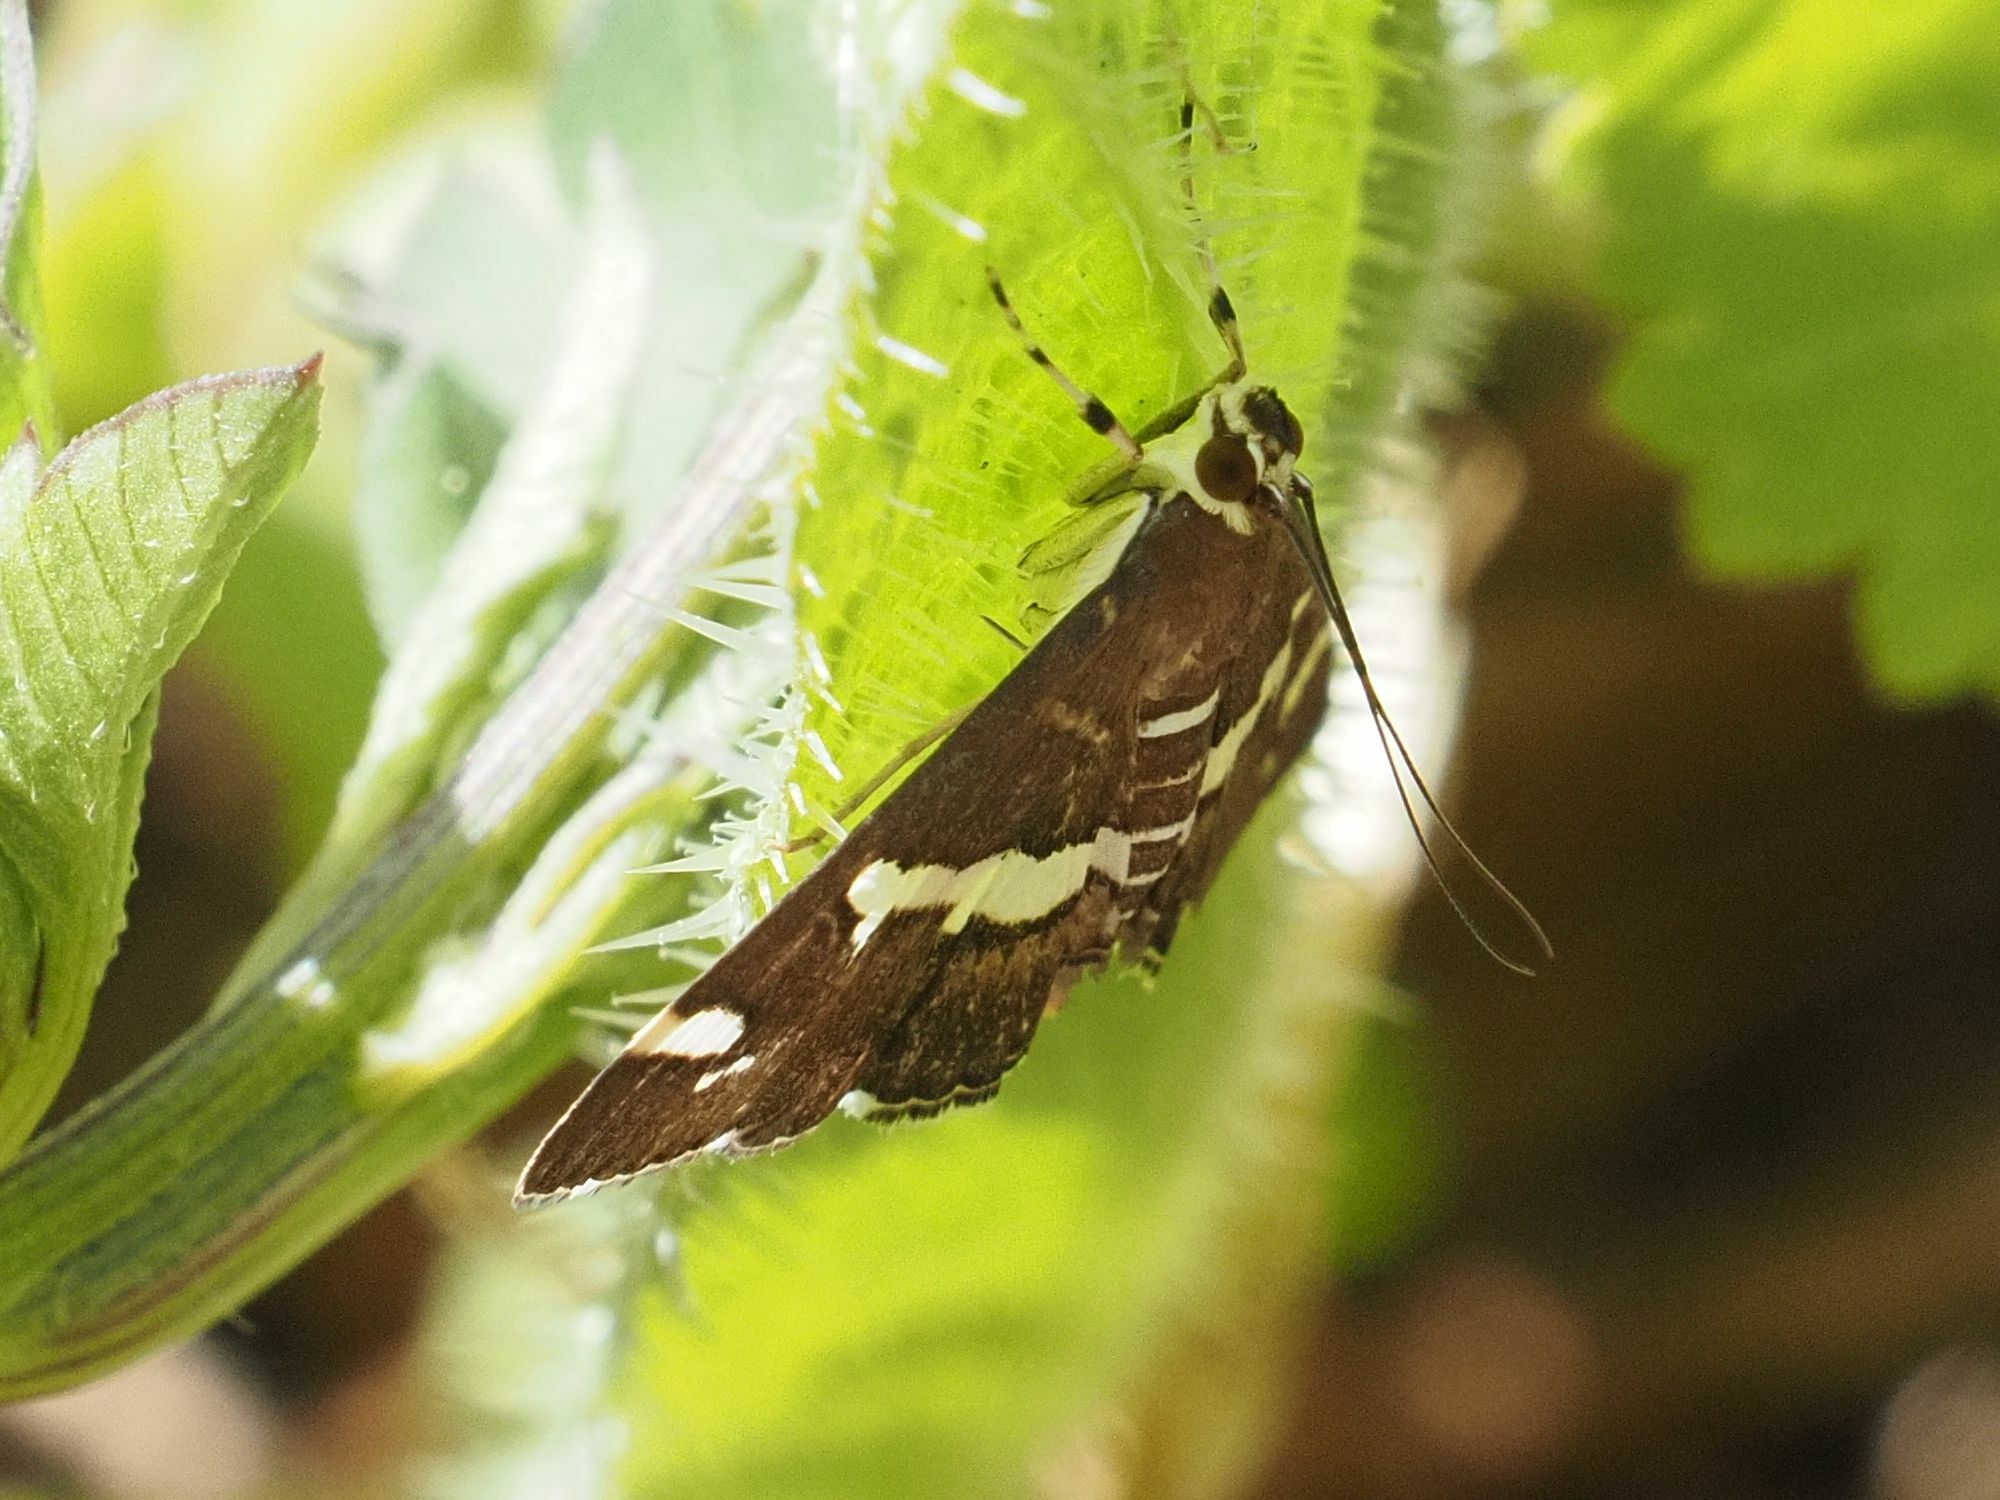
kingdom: Animalia
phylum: Arthropoda
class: Insecta
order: Lepidoptera
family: Crambidae
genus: Spoladea
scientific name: Spoladea recurvalis
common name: Beet webworm moth
